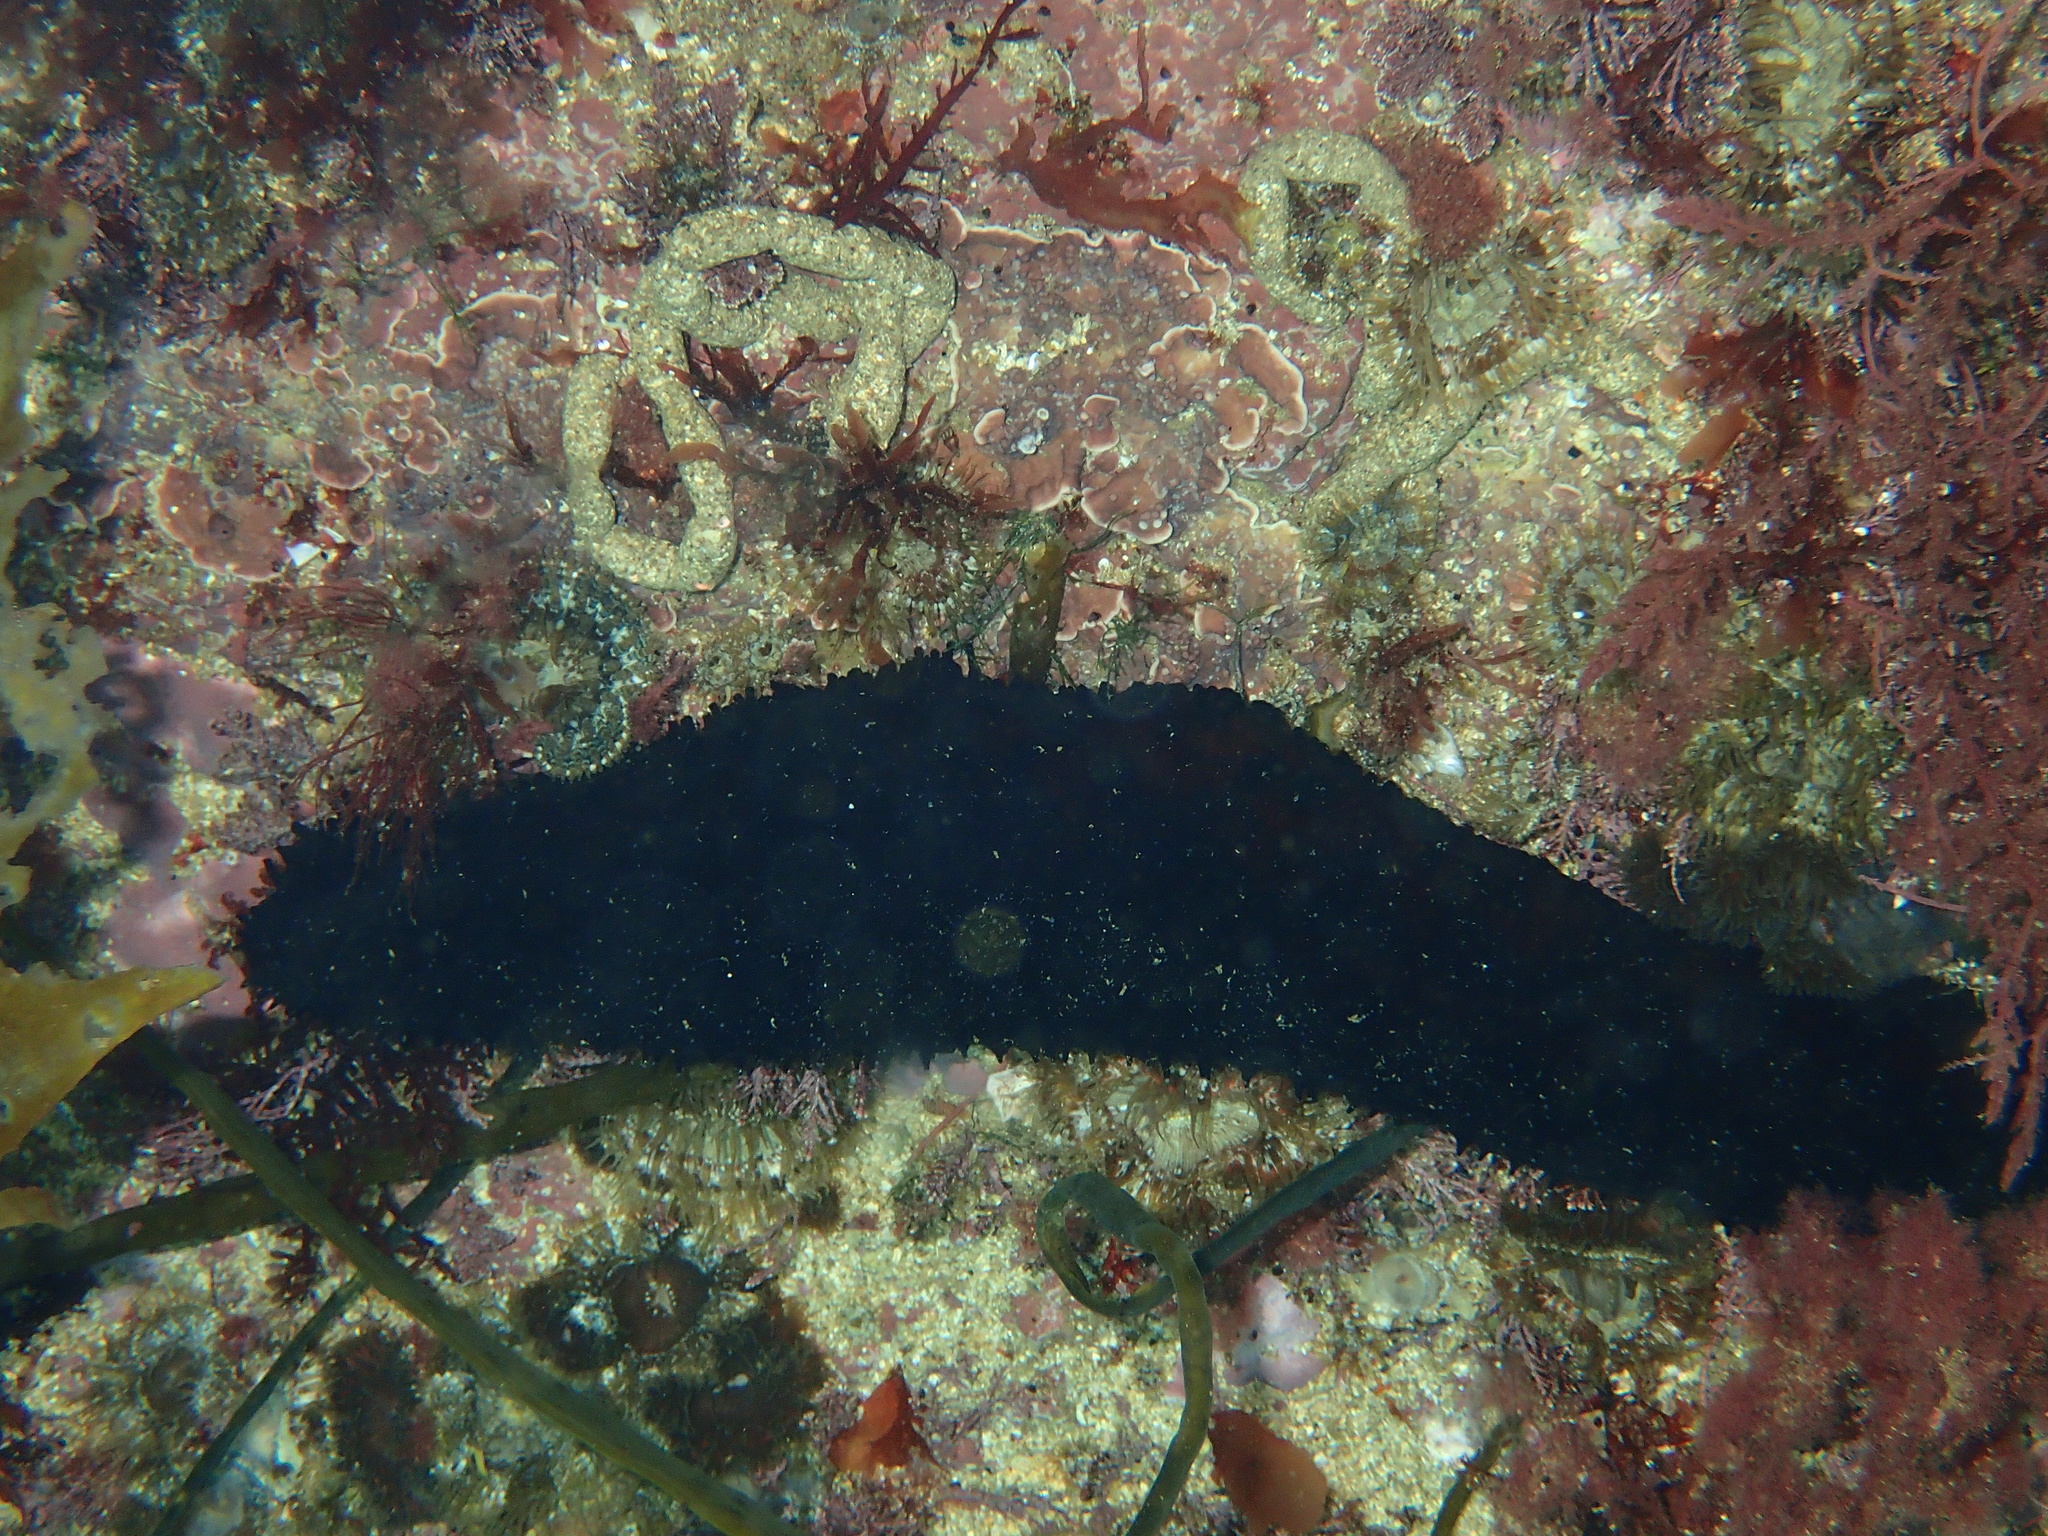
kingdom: Animalia
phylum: Echinodermata
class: Holothuroidea
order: Holothuriida
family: Holothuriidae
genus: Holothuria
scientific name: Holothuria forskali
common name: Black sea cucumber
